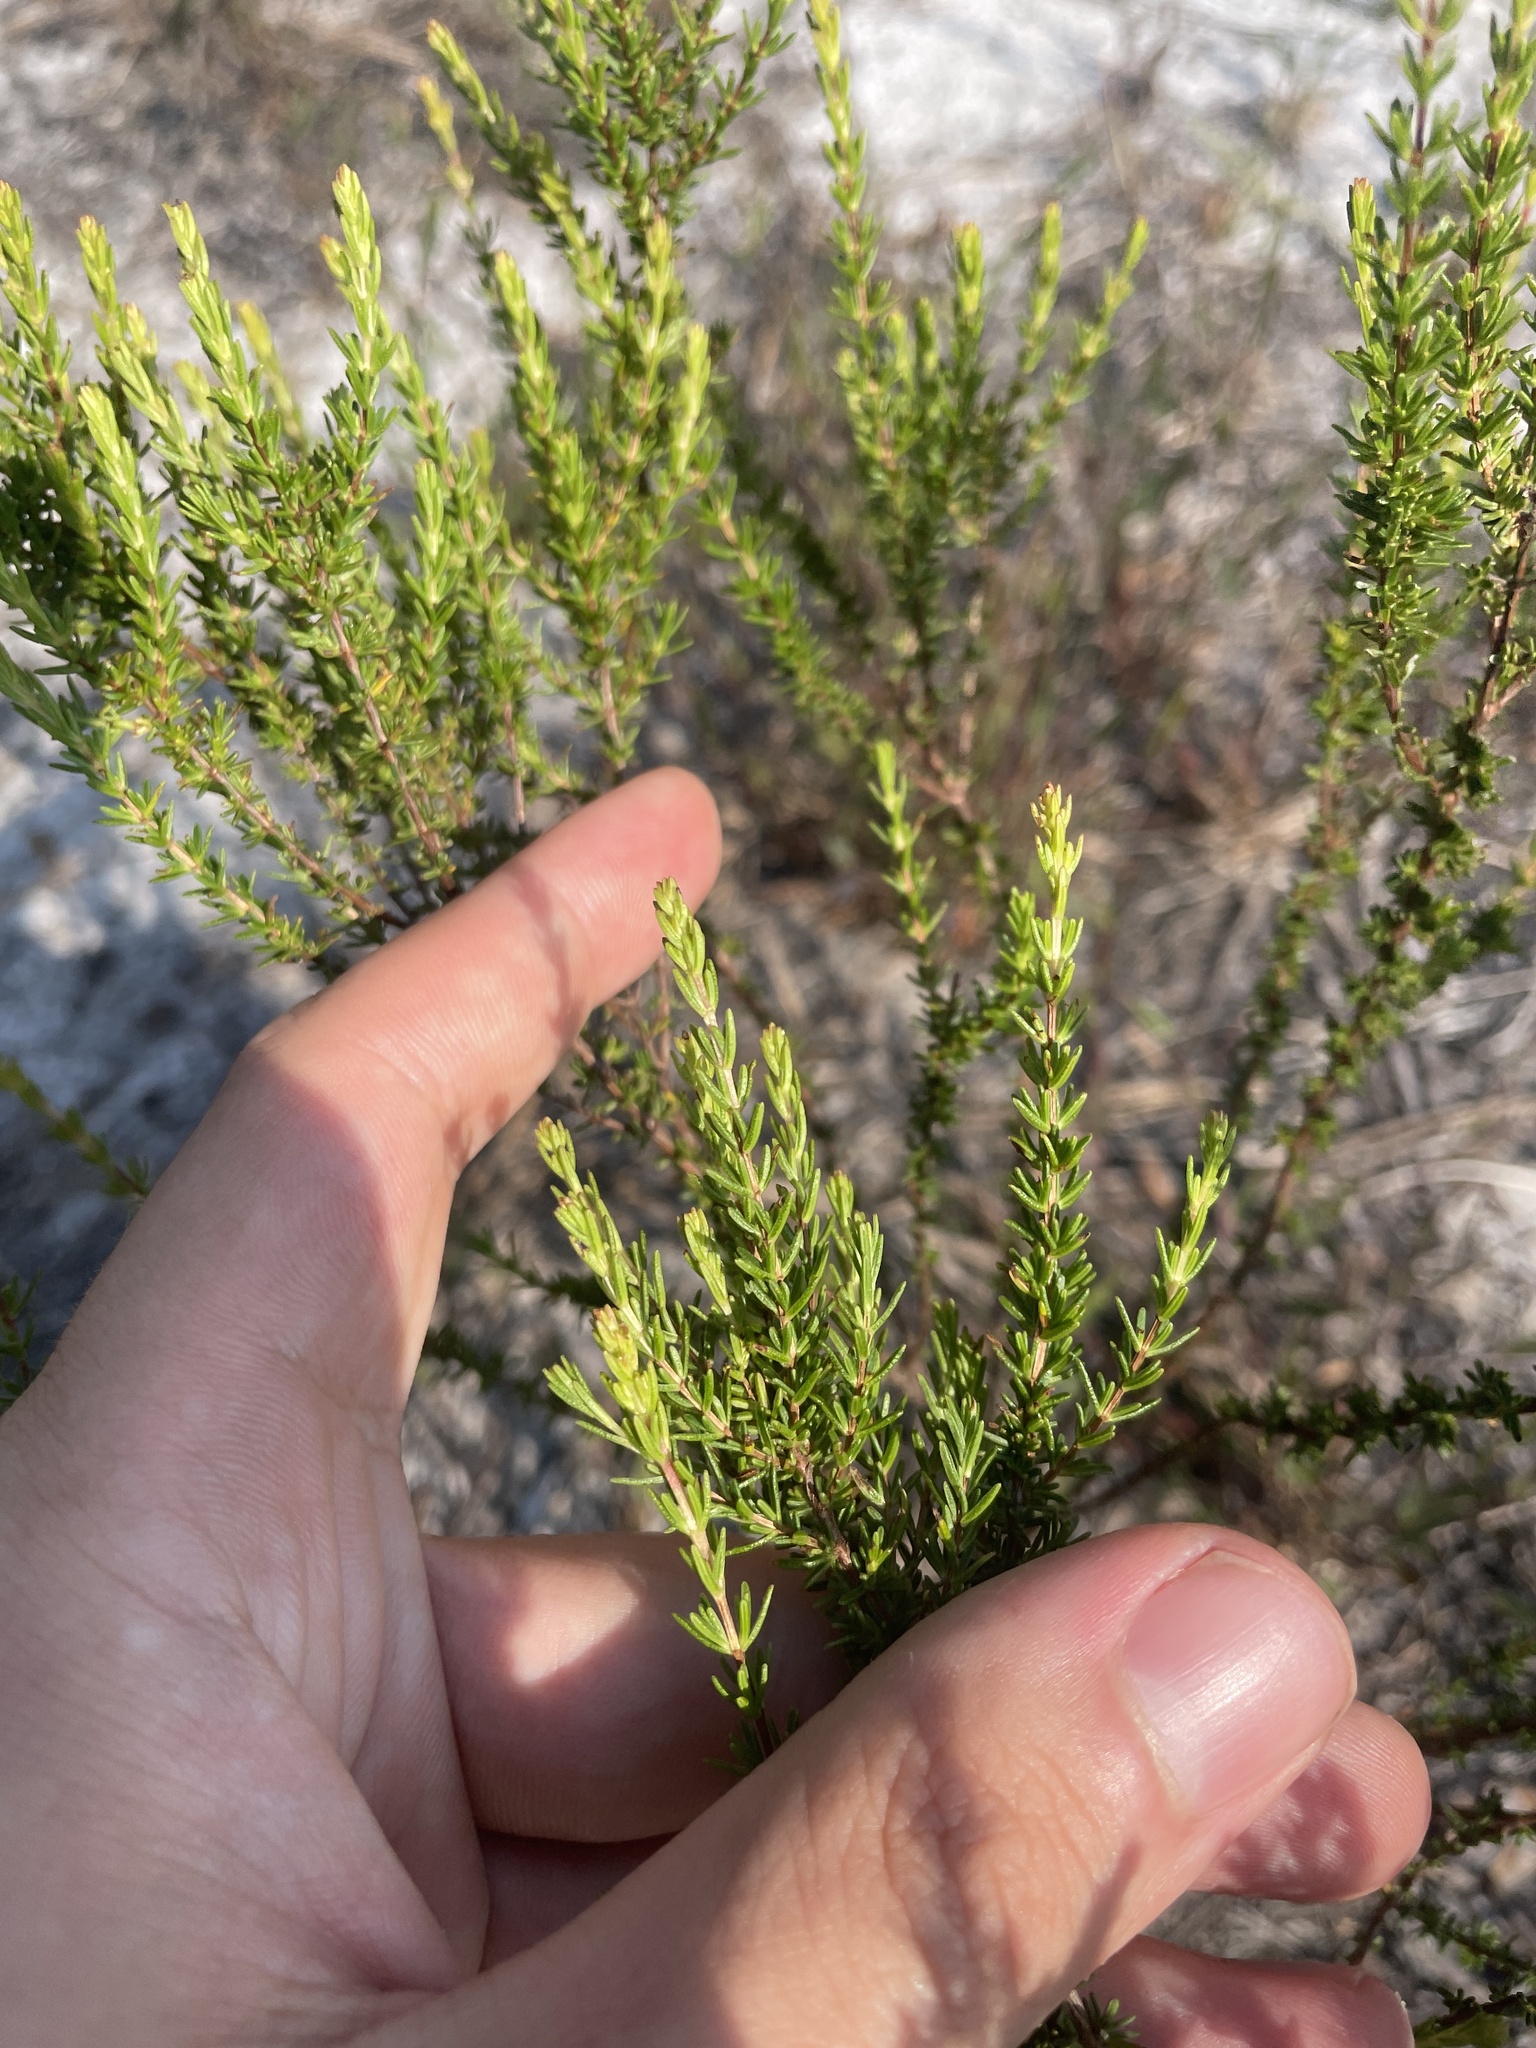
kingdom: Plantae
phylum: Tracheophyta
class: Magnoliopsida
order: Malpighiales
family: Hypericaceae
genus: Hypericum
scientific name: Hypericum tenuifolium
